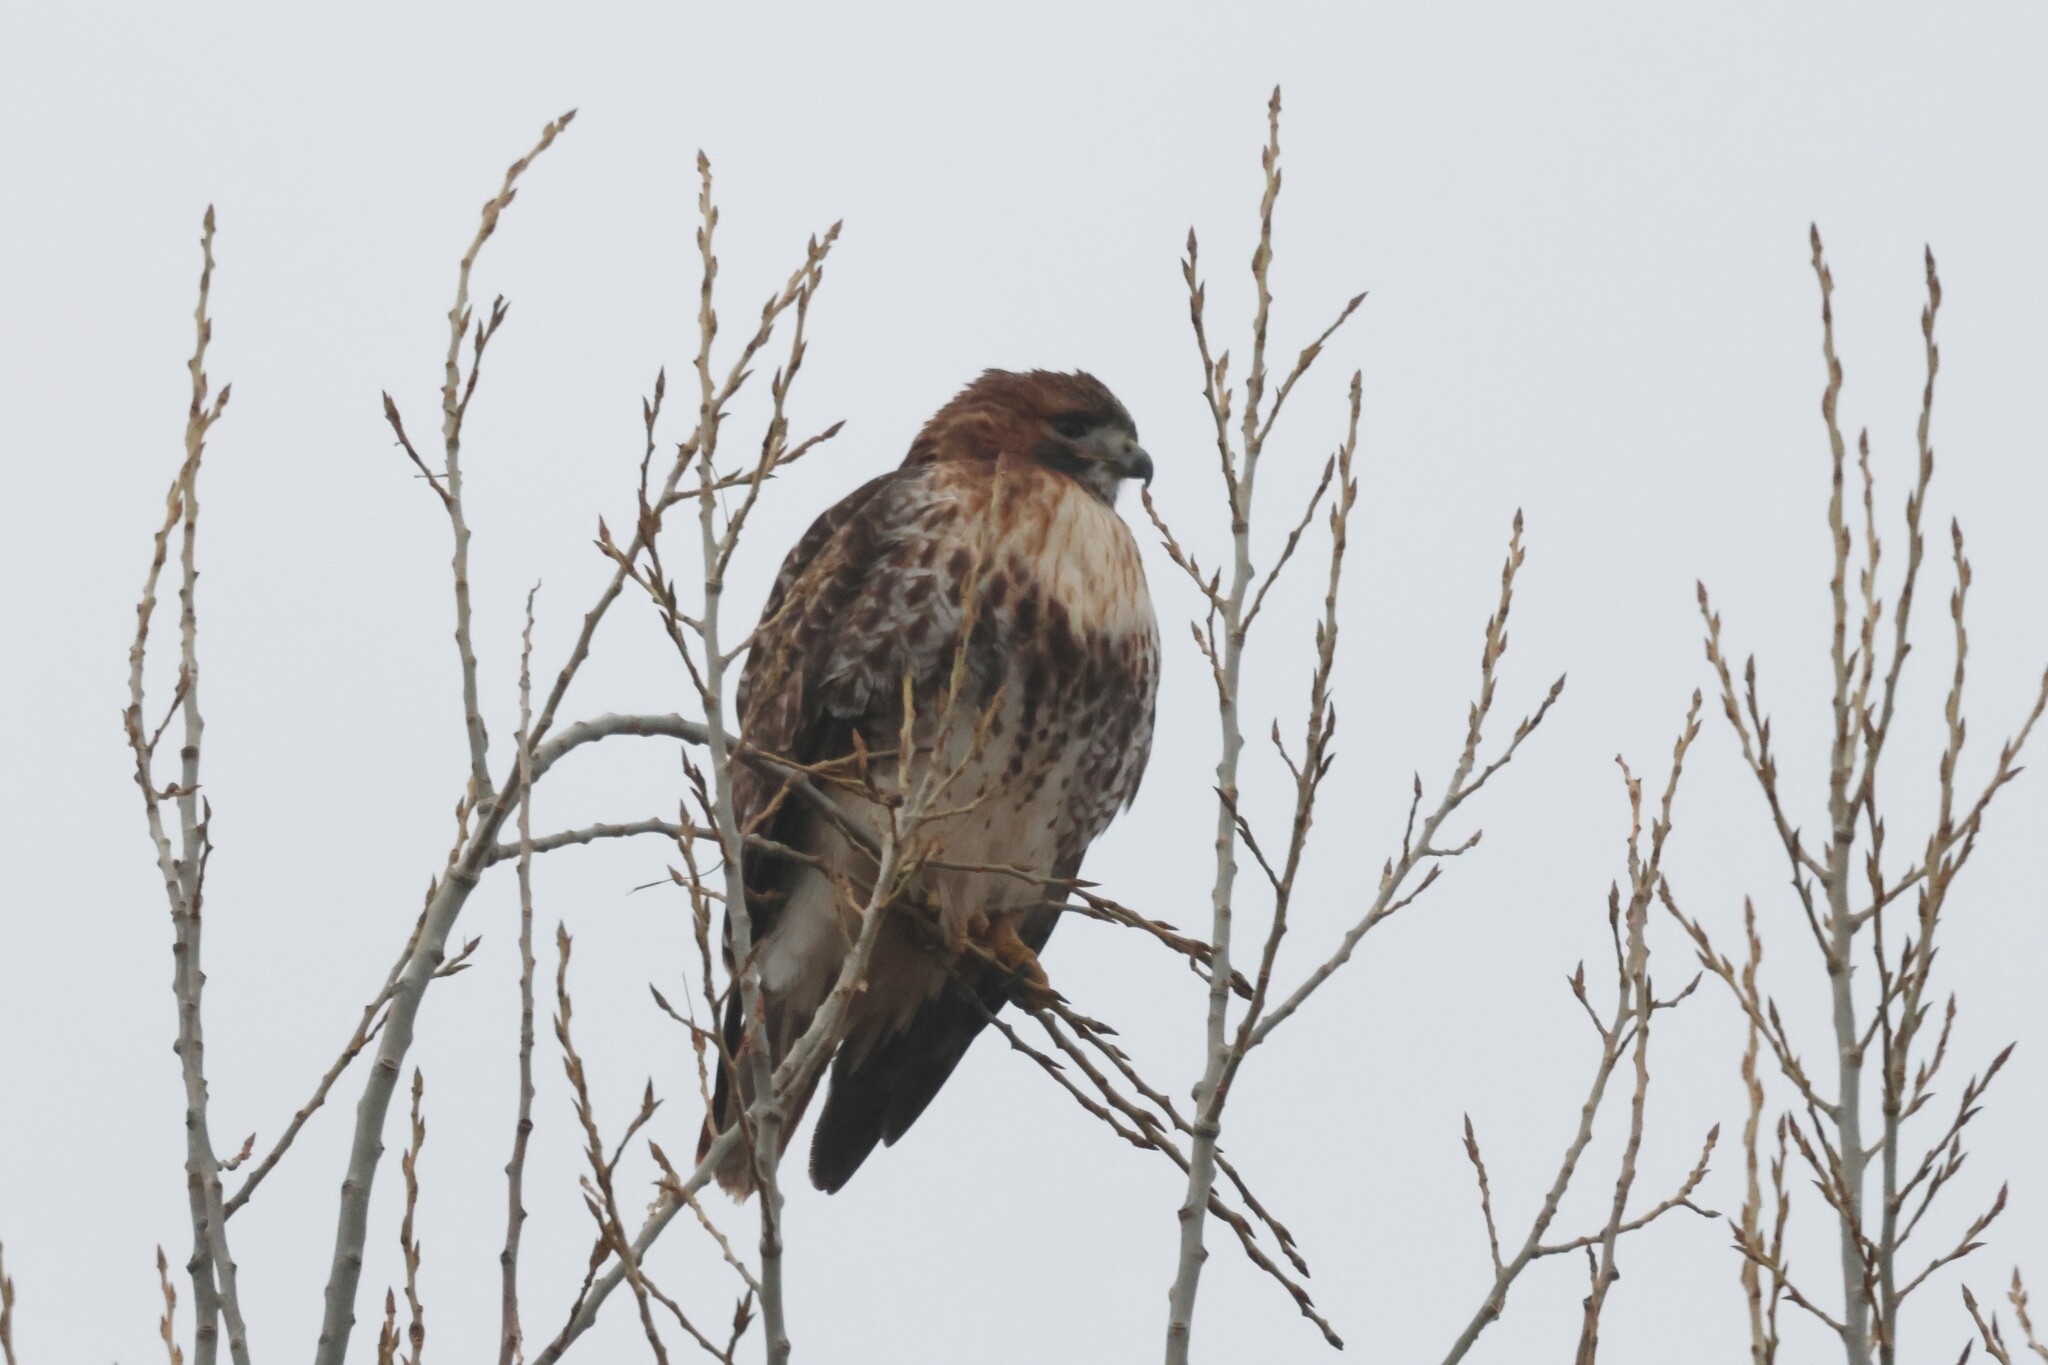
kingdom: Animalia
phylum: Chordata
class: Aves
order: Accipitriformes
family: Accipitridae
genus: Buteo
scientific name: Buteo jamaicensis
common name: Red-tailed hawk
